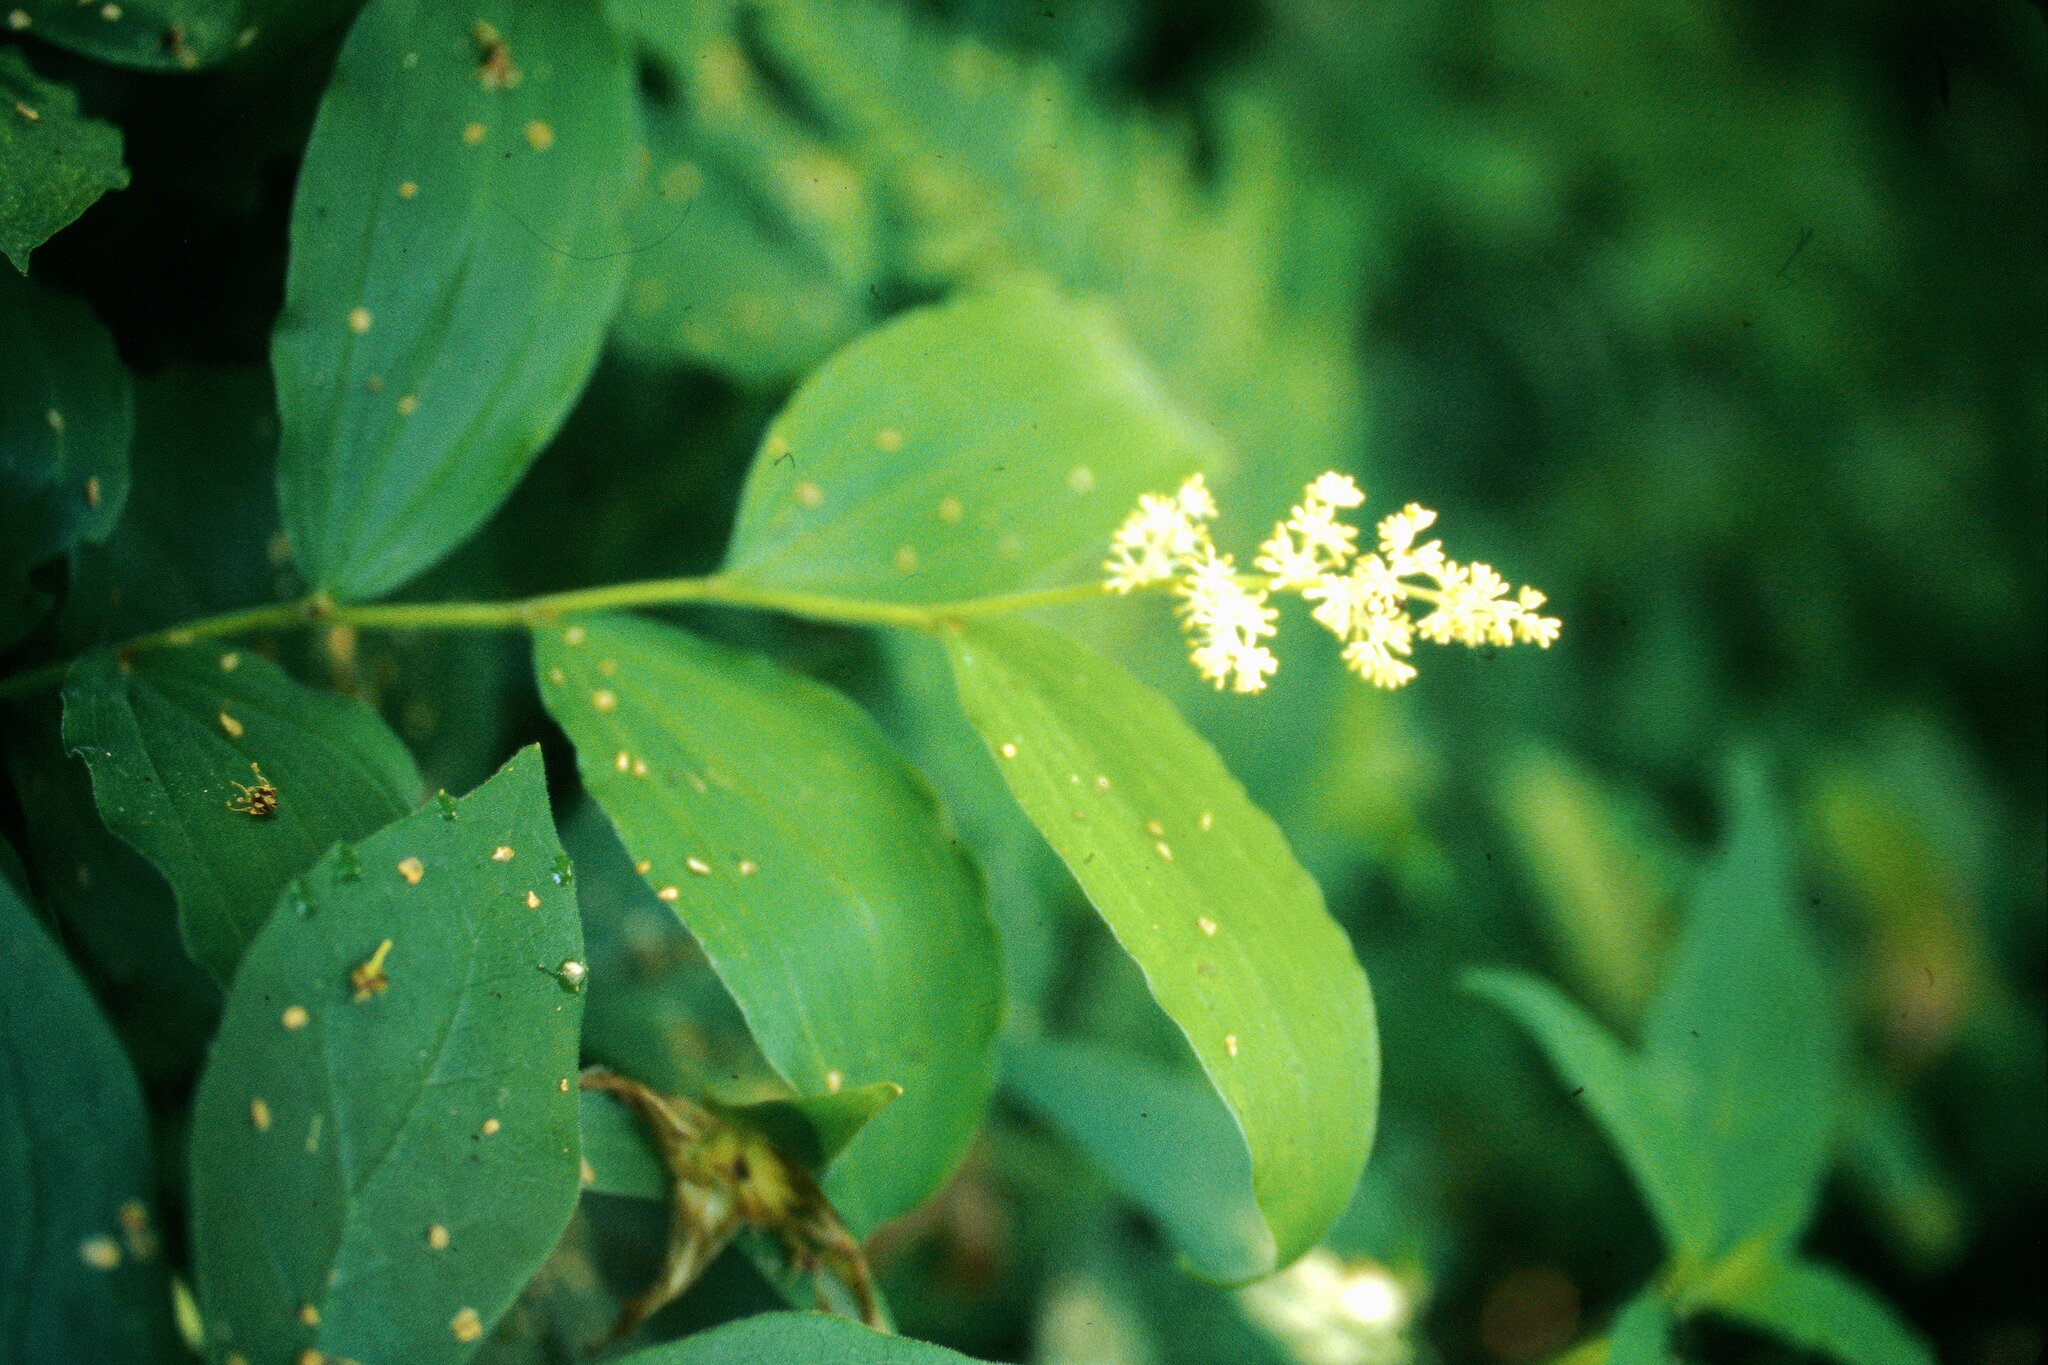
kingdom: Plantae
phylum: Tracheophyta
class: Liliopsida
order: Asparagales
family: Asparagaceae
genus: Maianthemum
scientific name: Maianthemum racemosum
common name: False spikenard
